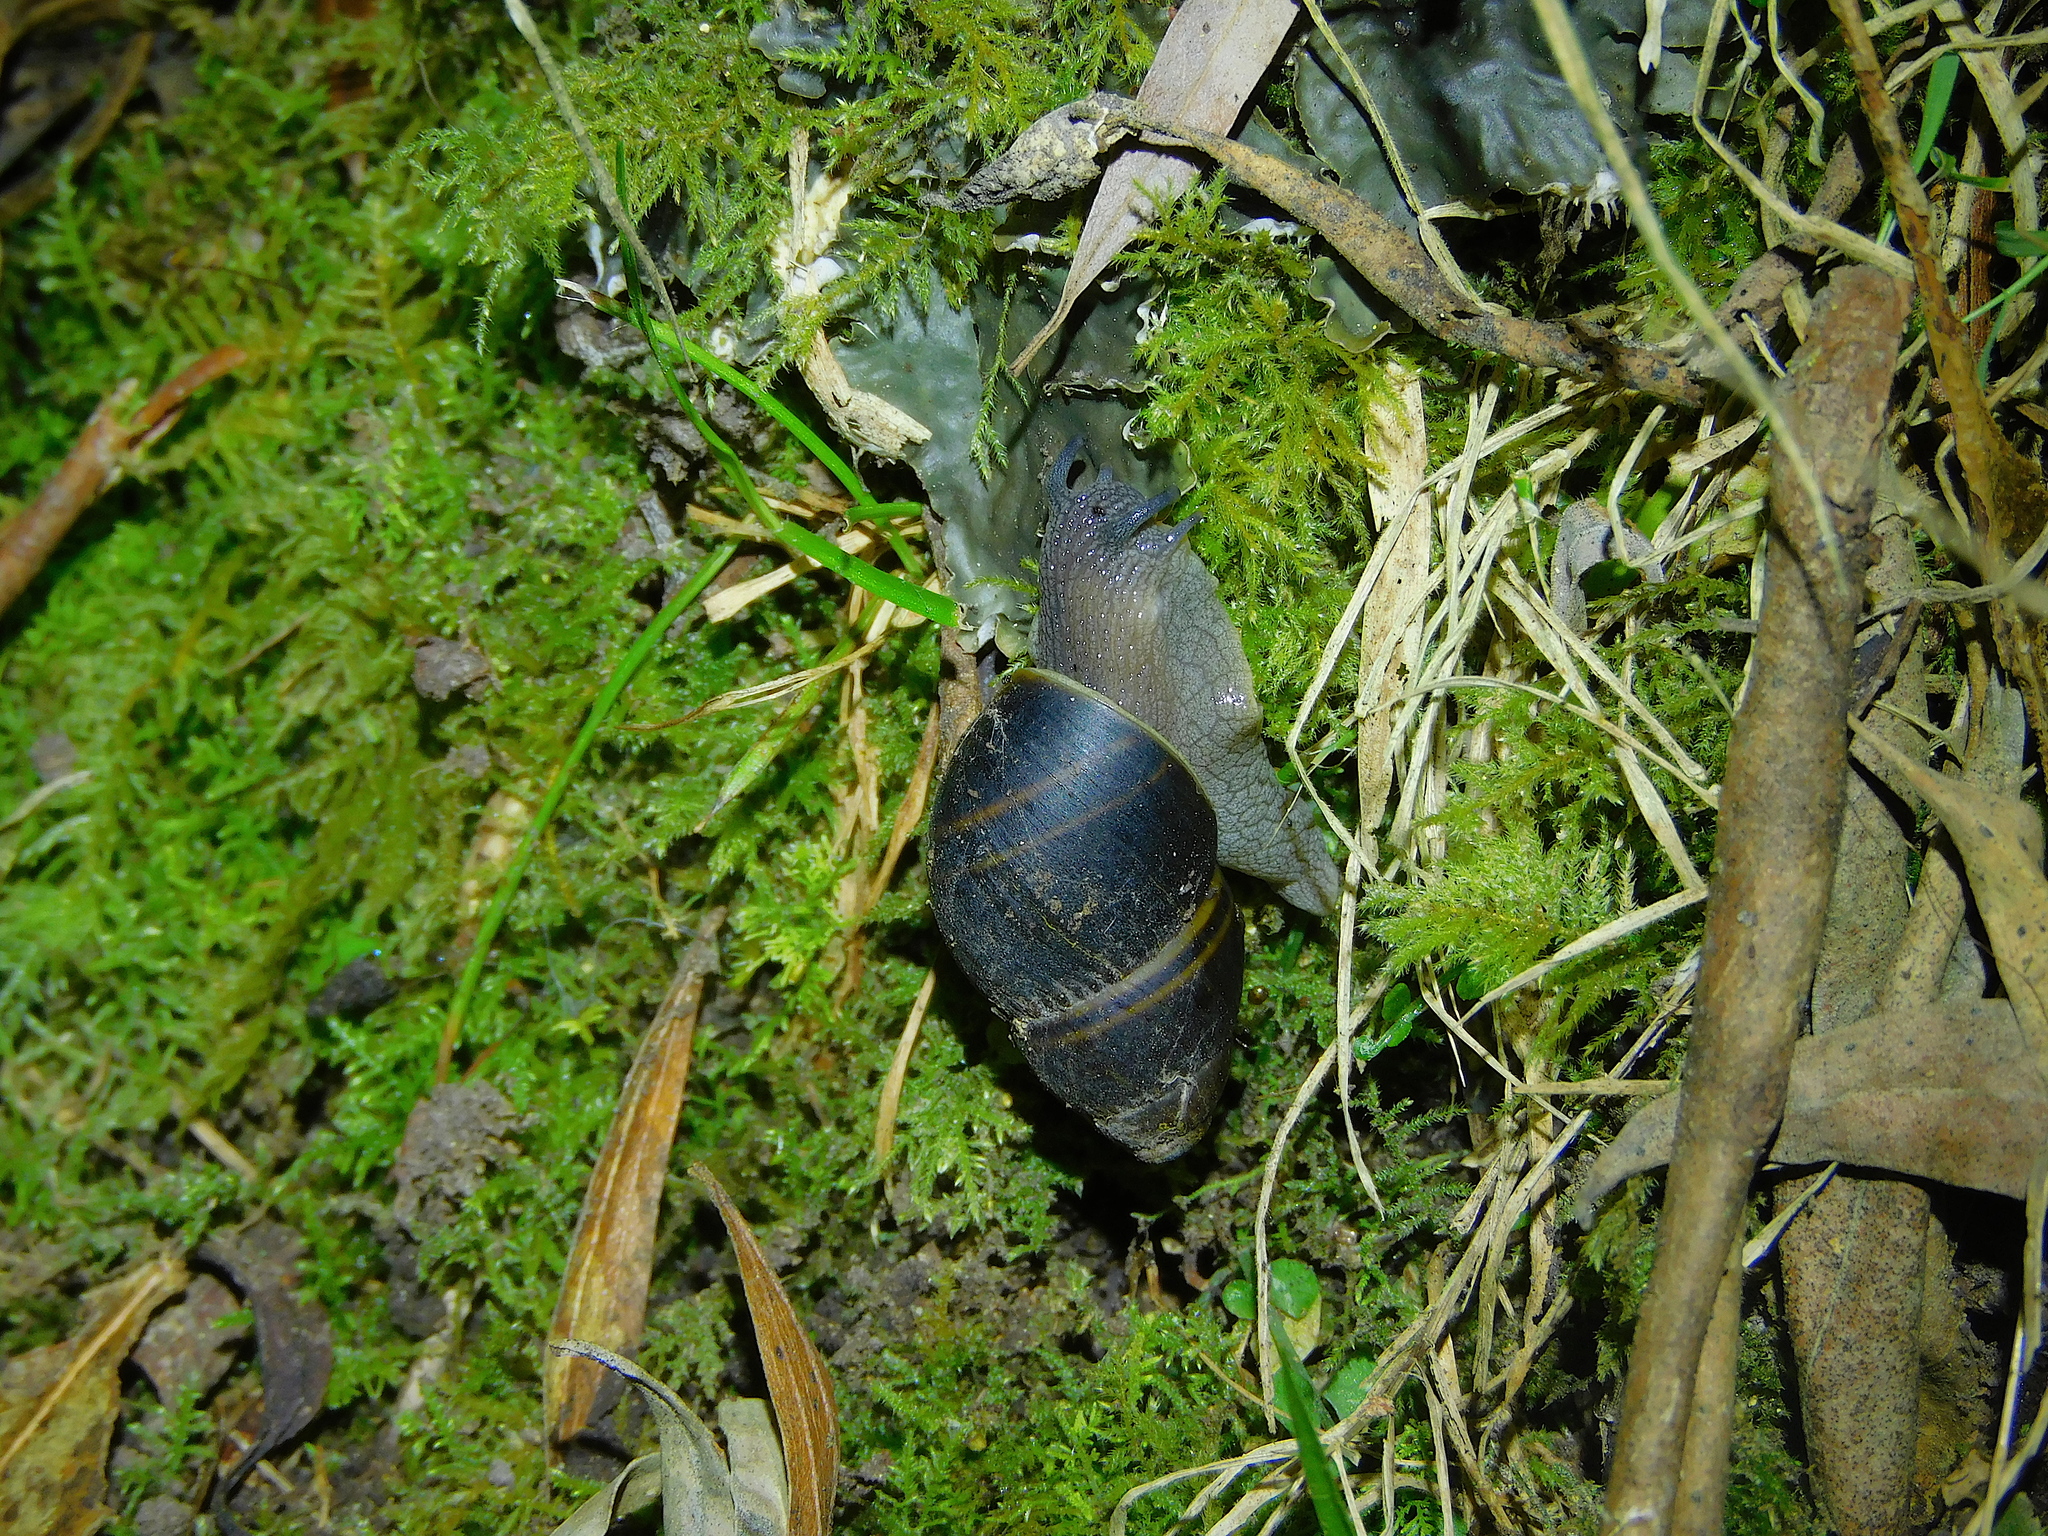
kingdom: Animalia
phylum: Mollusca
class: Gastropoda
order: Stylommatophora
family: Caryodidae
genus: Caryodes
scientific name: Caryodes dufresnii
